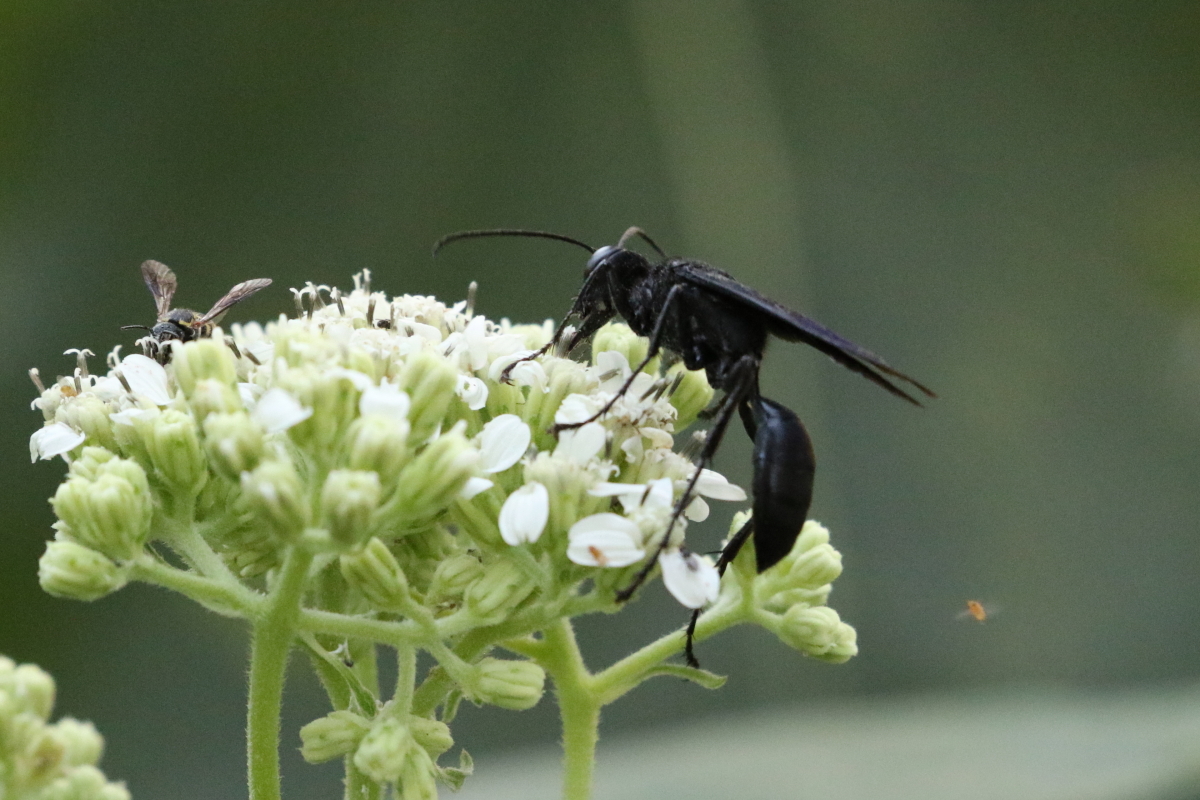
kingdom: Animalia
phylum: Arthropoda
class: Insecta
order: Hymenoptera
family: Sphecidae
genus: Sphex
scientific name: Sphex pensylvanicus
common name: Great black digger wasp
